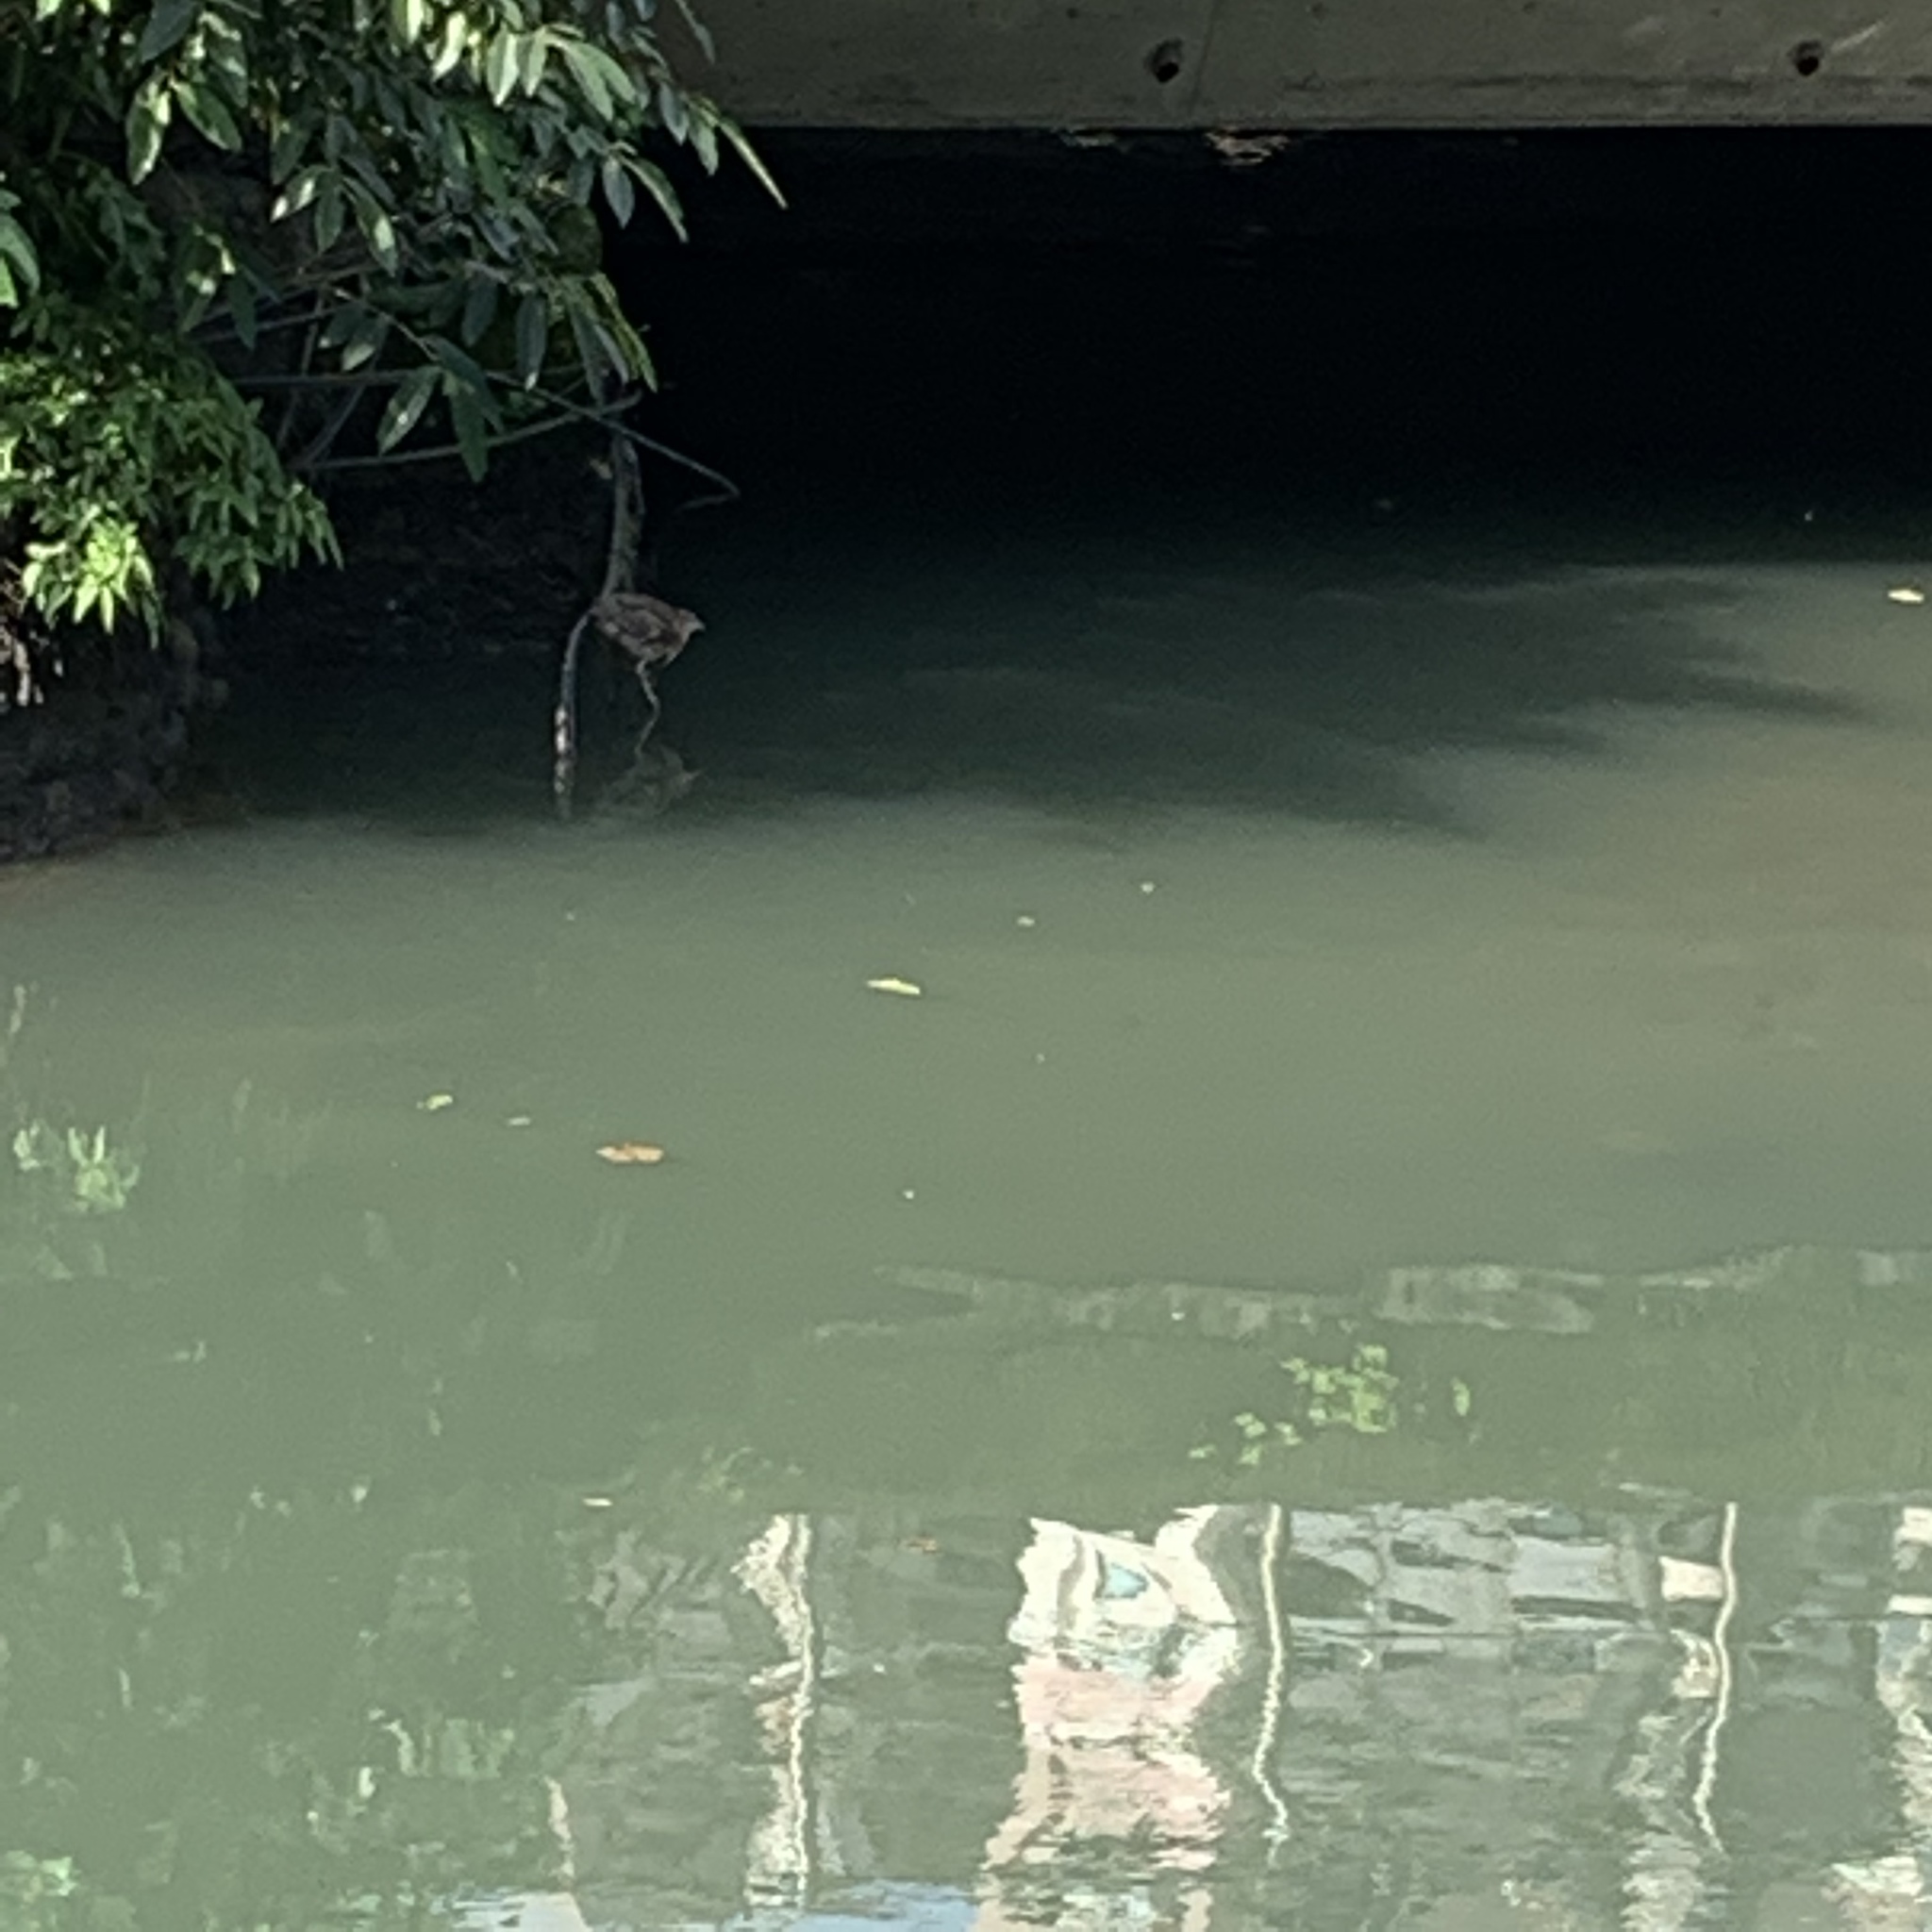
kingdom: Animalia
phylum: Chordata
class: Aves
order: Pelecaniformes
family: Ardeidae
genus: Nycticorax
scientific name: Nycticorax nycticorax
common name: Black-crowned night heron
